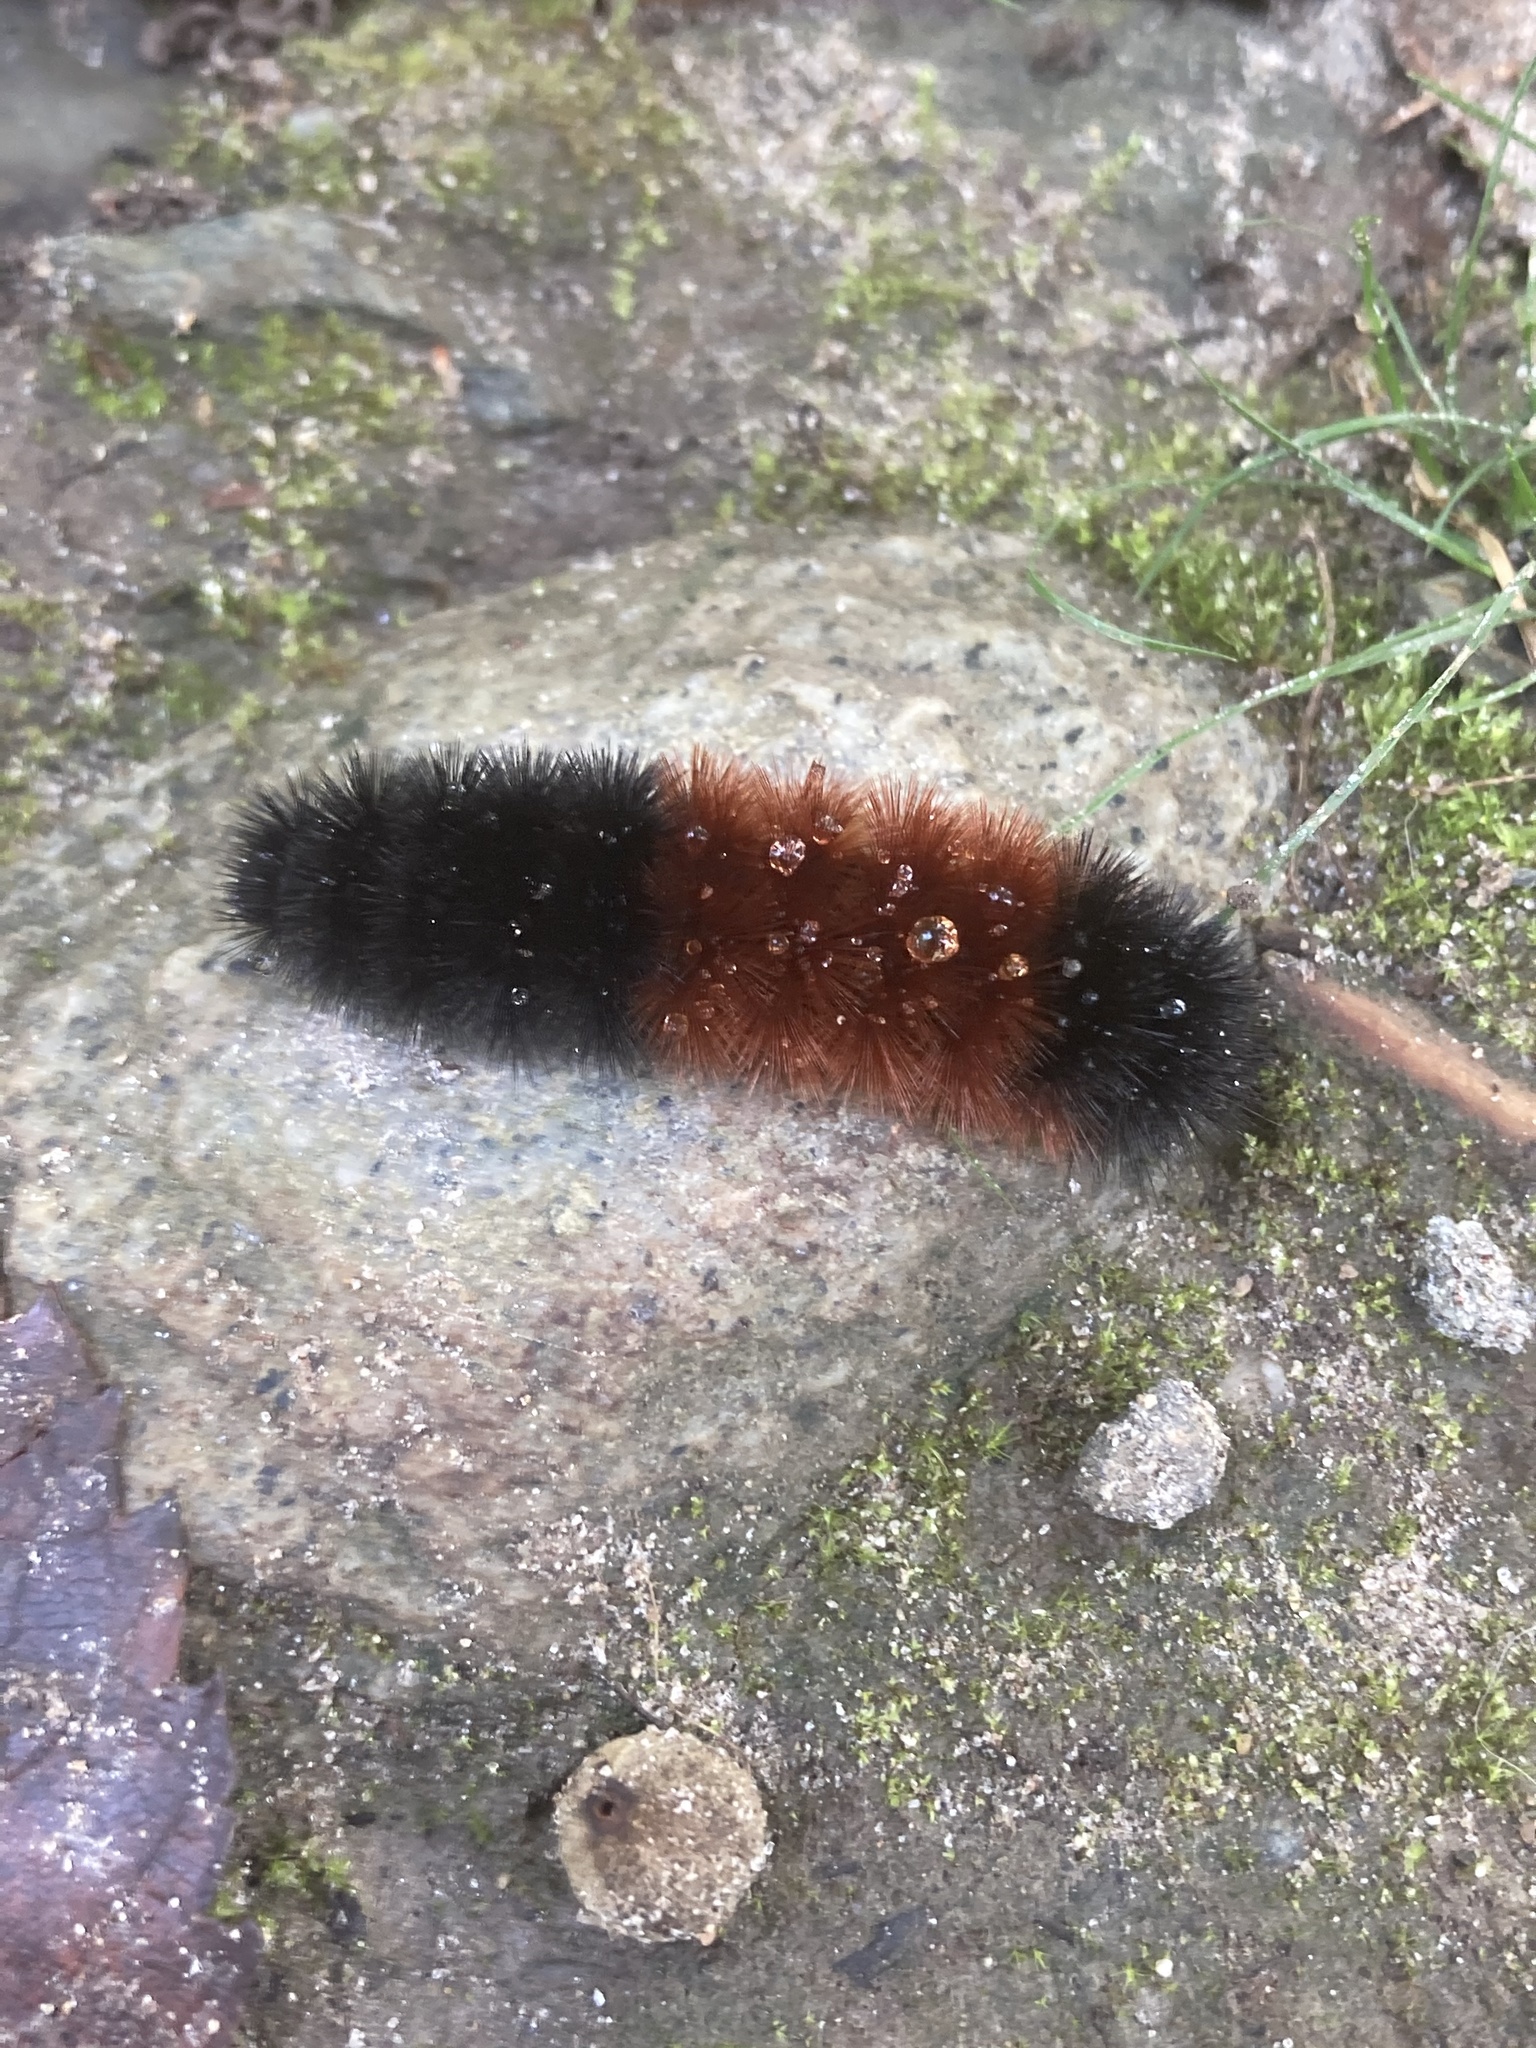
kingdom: Animalia
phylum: Arthropoda
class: Insecta
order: Lepidoptera
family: Erebidae
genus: Pyrrharctia
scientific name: Pyrrharctia isabella
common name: Isabella tiger moth
